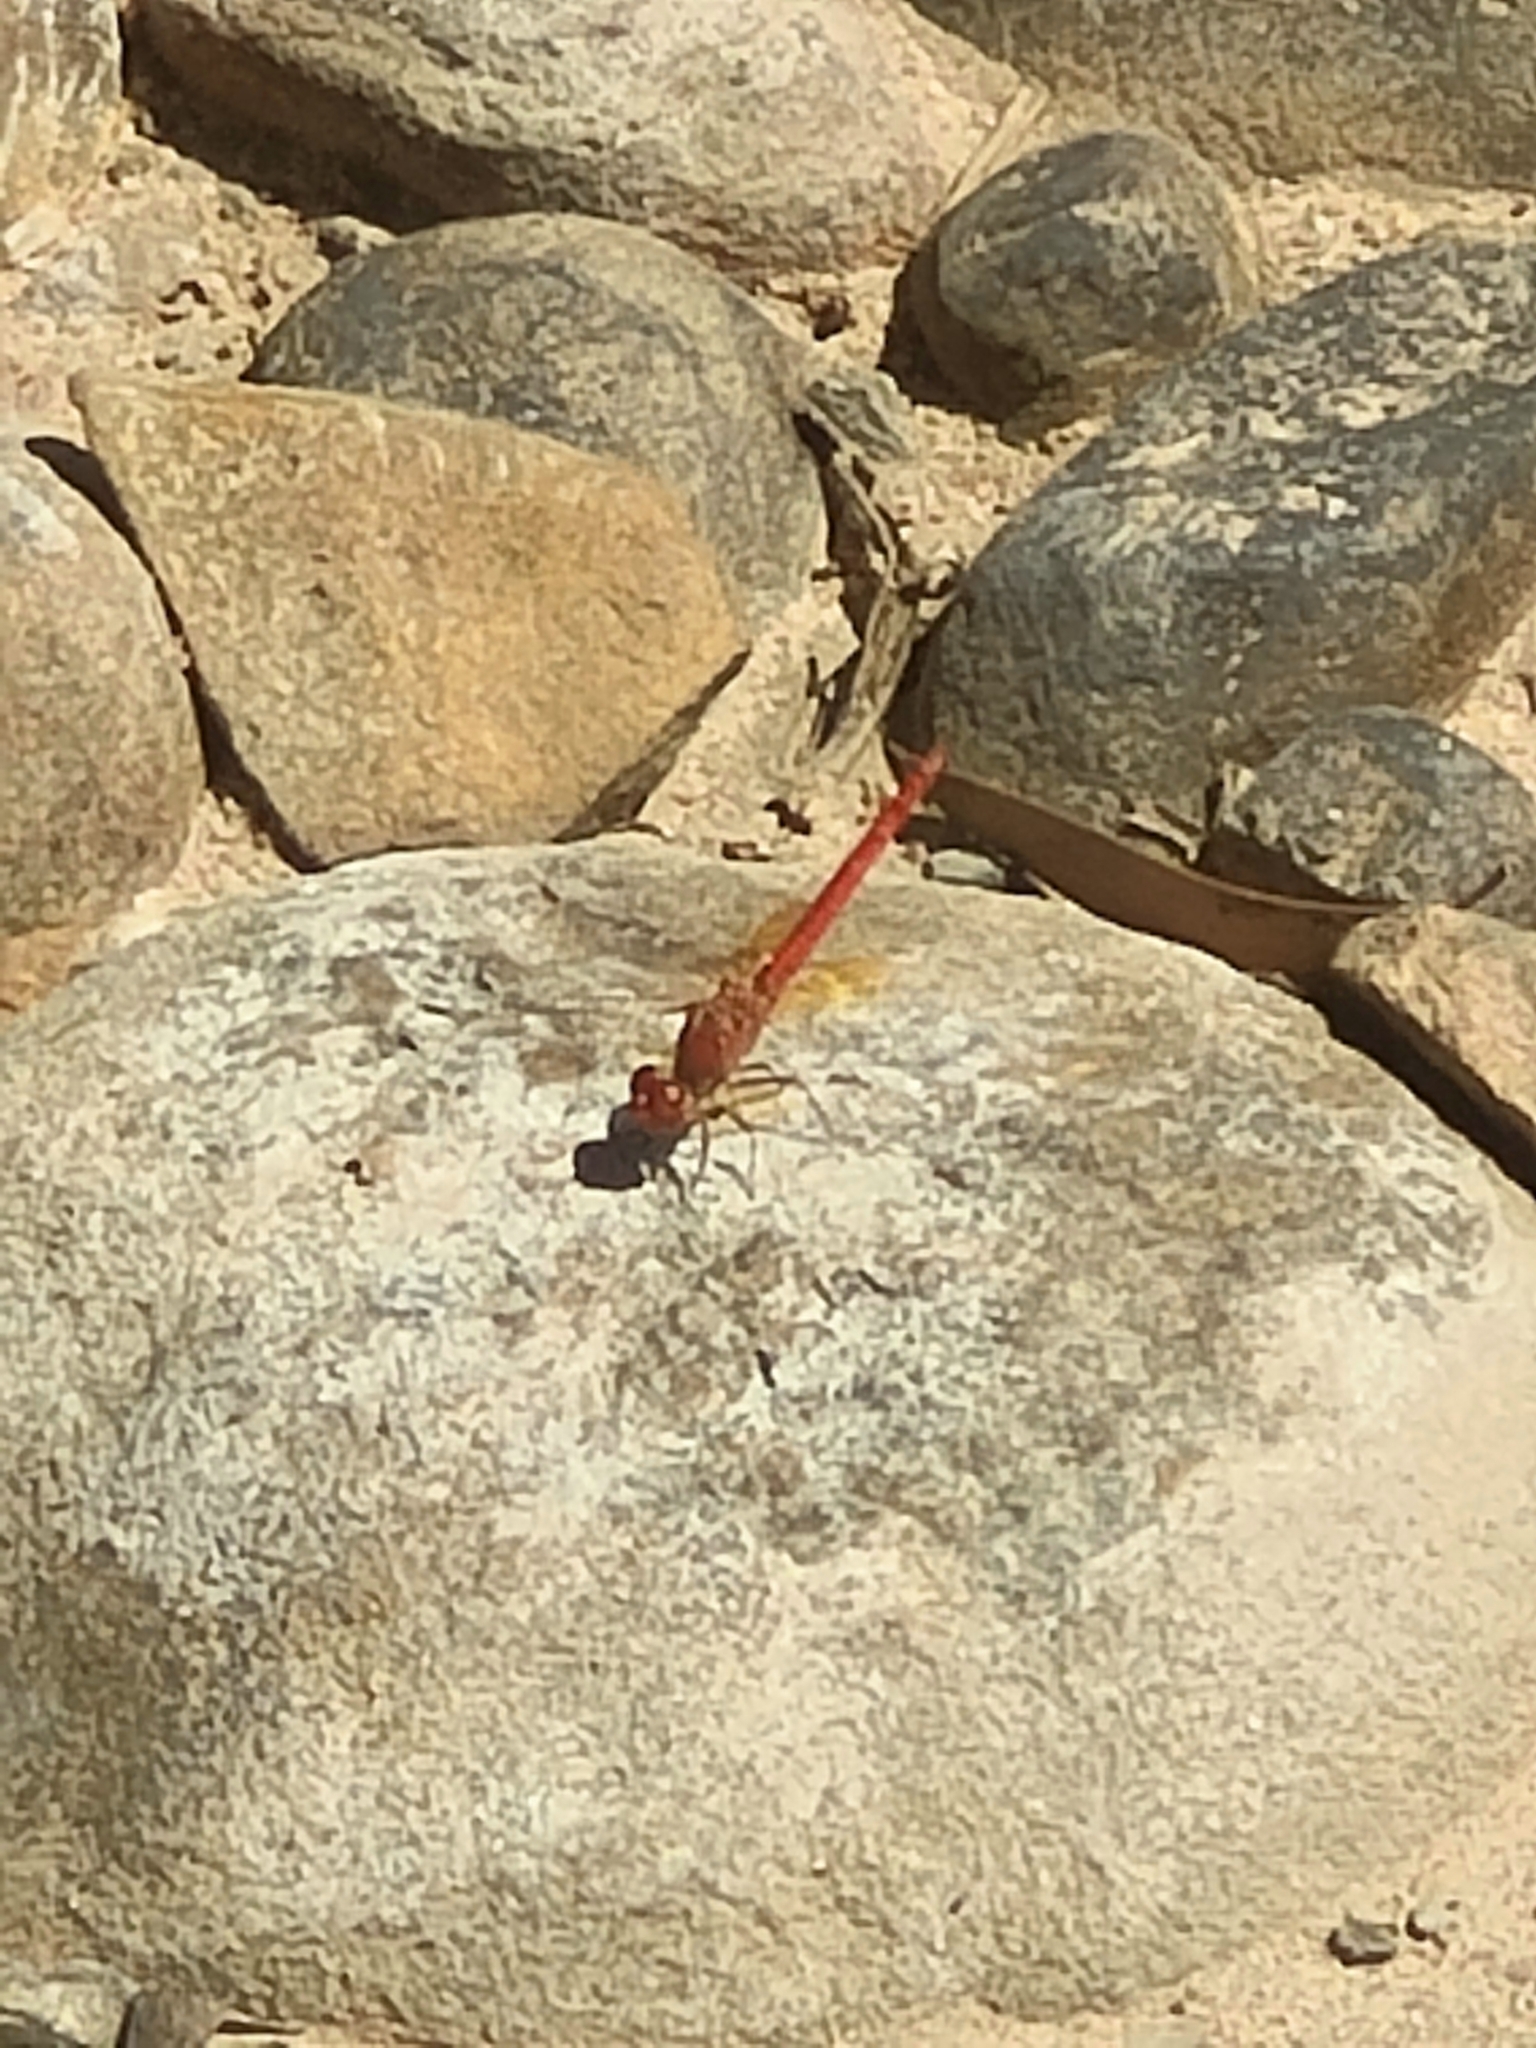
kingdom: Animalia
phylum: Arthropoda
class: Insecta
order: Odonata
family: Libellulidae
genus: Diplacodes
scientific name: Diplacodes haematodes
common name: Scarlet percher
